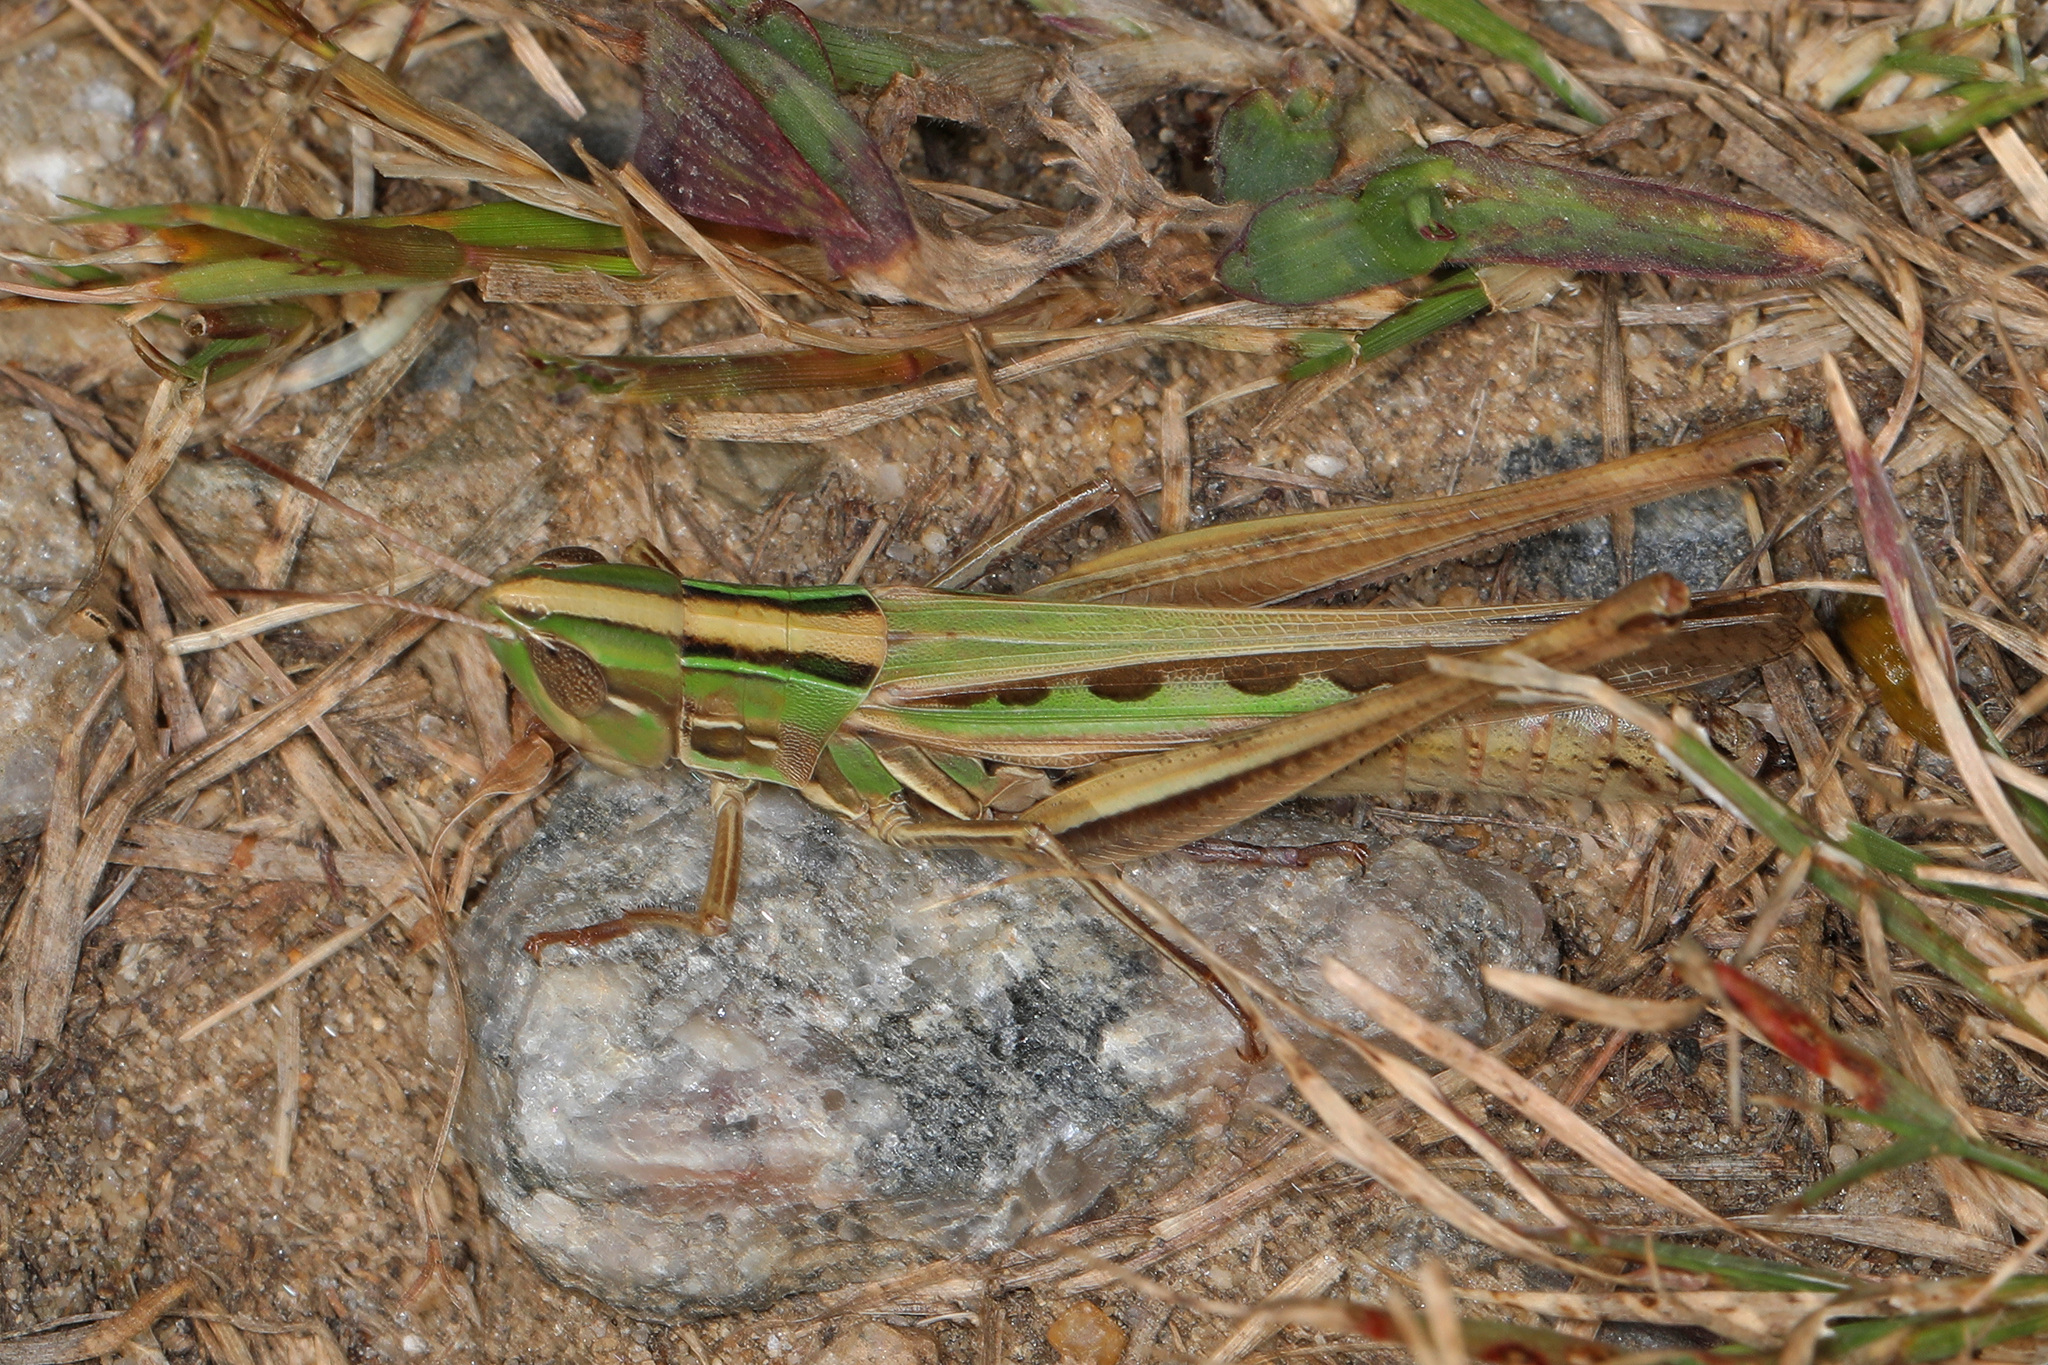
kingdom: Animalia
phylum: Arthropoda
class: Insecta
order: Orthoptera
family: Acrididae
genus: Syrbula
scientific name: Syrbula admirabilis
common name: Handsome grasshopper
